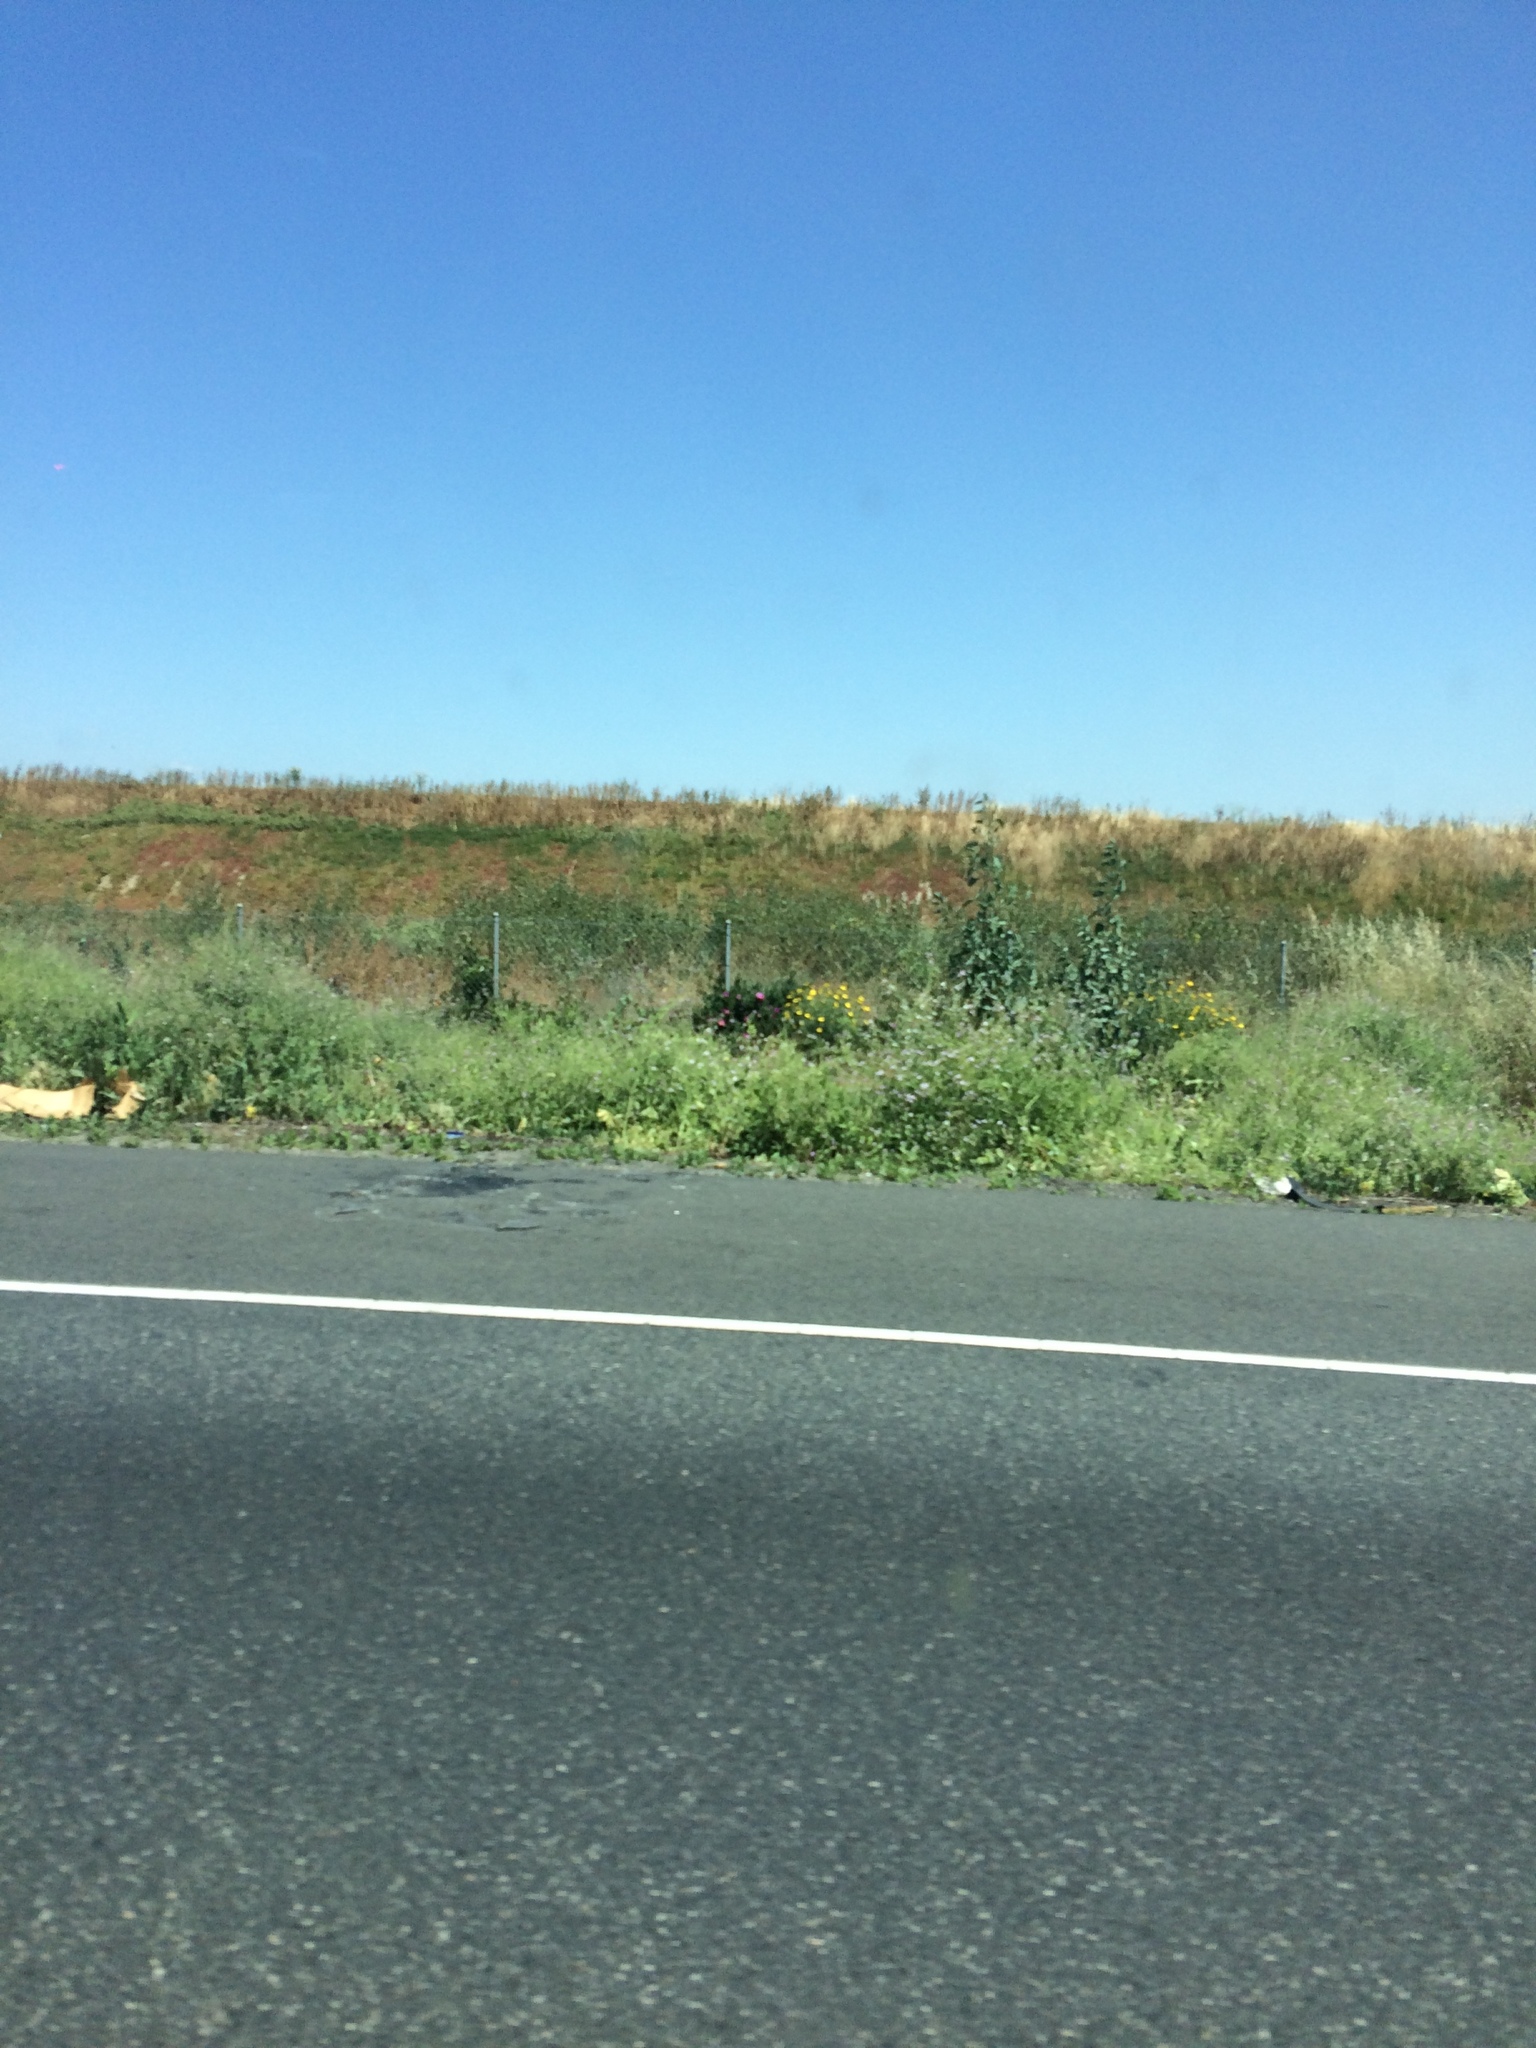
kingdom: Plantae
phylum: Tracheophyta
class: Magnoliopsida
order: Solanales
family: Solanaceae
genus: Nicotiana
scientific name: Nicotiana glauca
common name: Tree tobacco
